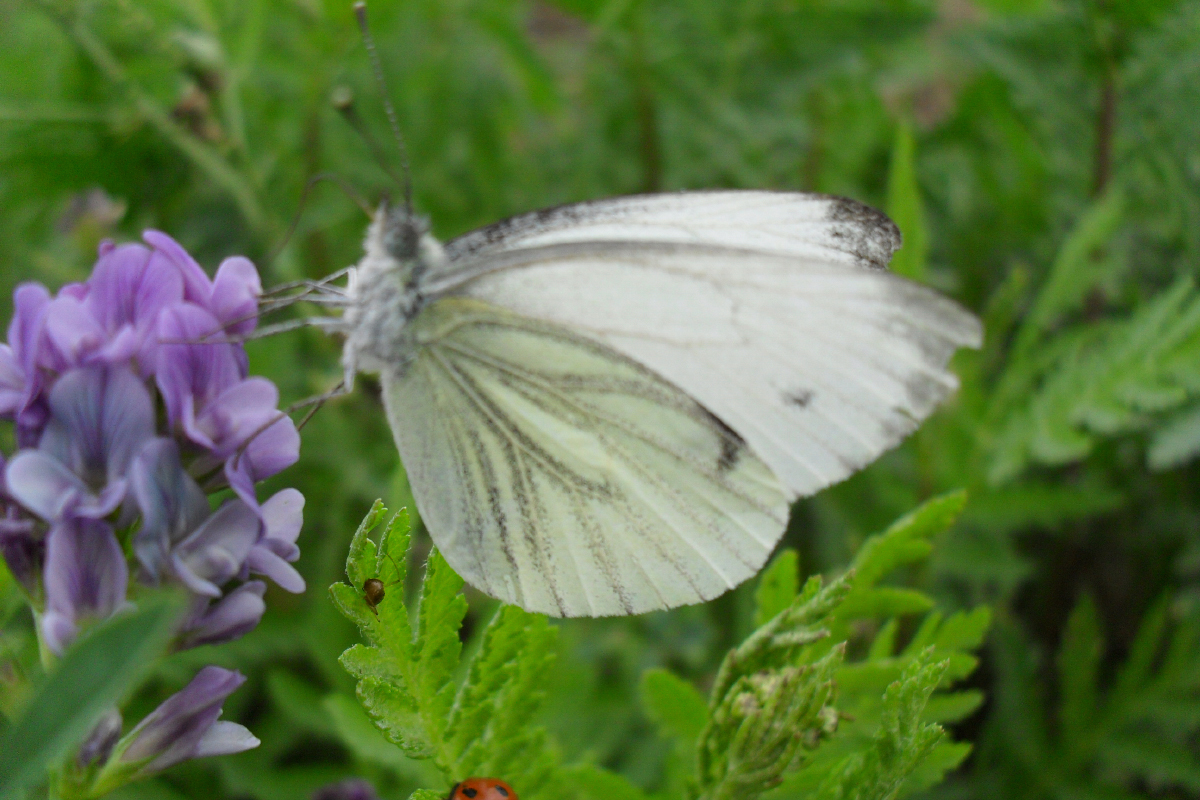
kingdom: Animalia
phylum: Arthropoda
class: Insecta
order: Lepidoptera
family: Pieridae
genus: Pieris
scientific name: Pieris napi
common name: Green-veined white
